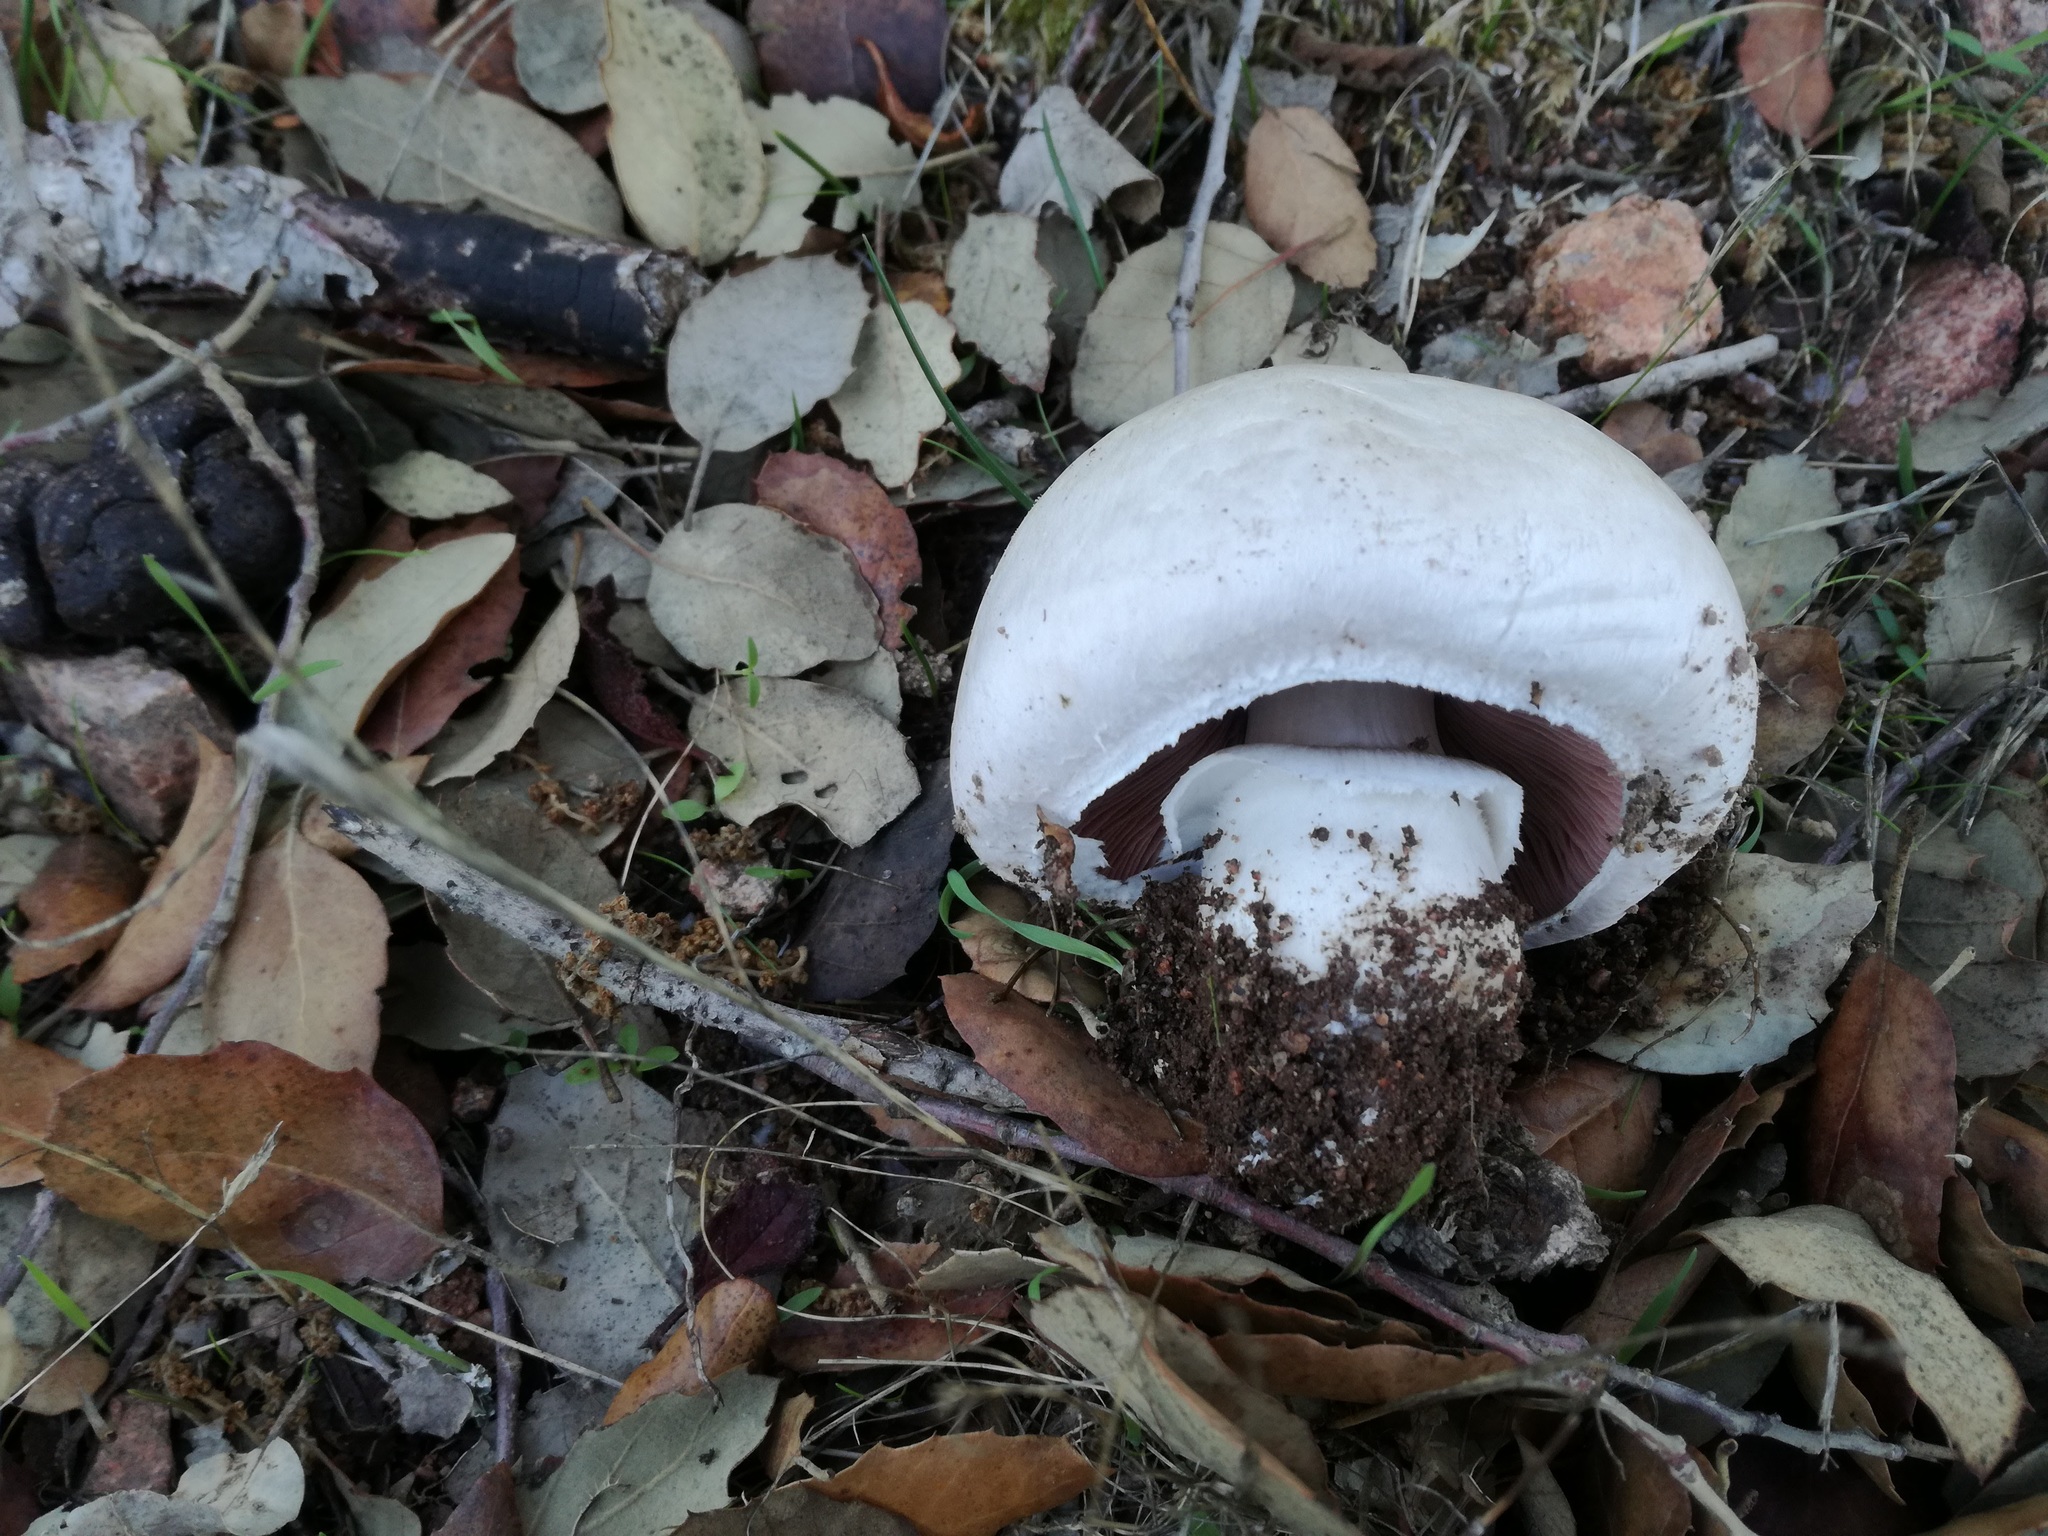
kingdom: Fungi
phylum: Basidiomycota
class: Agaricomycetes
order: Agaricales
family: Agaricaceae
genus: Agaricus
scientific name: Agaricus litoralis
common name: Coastal mushoom
